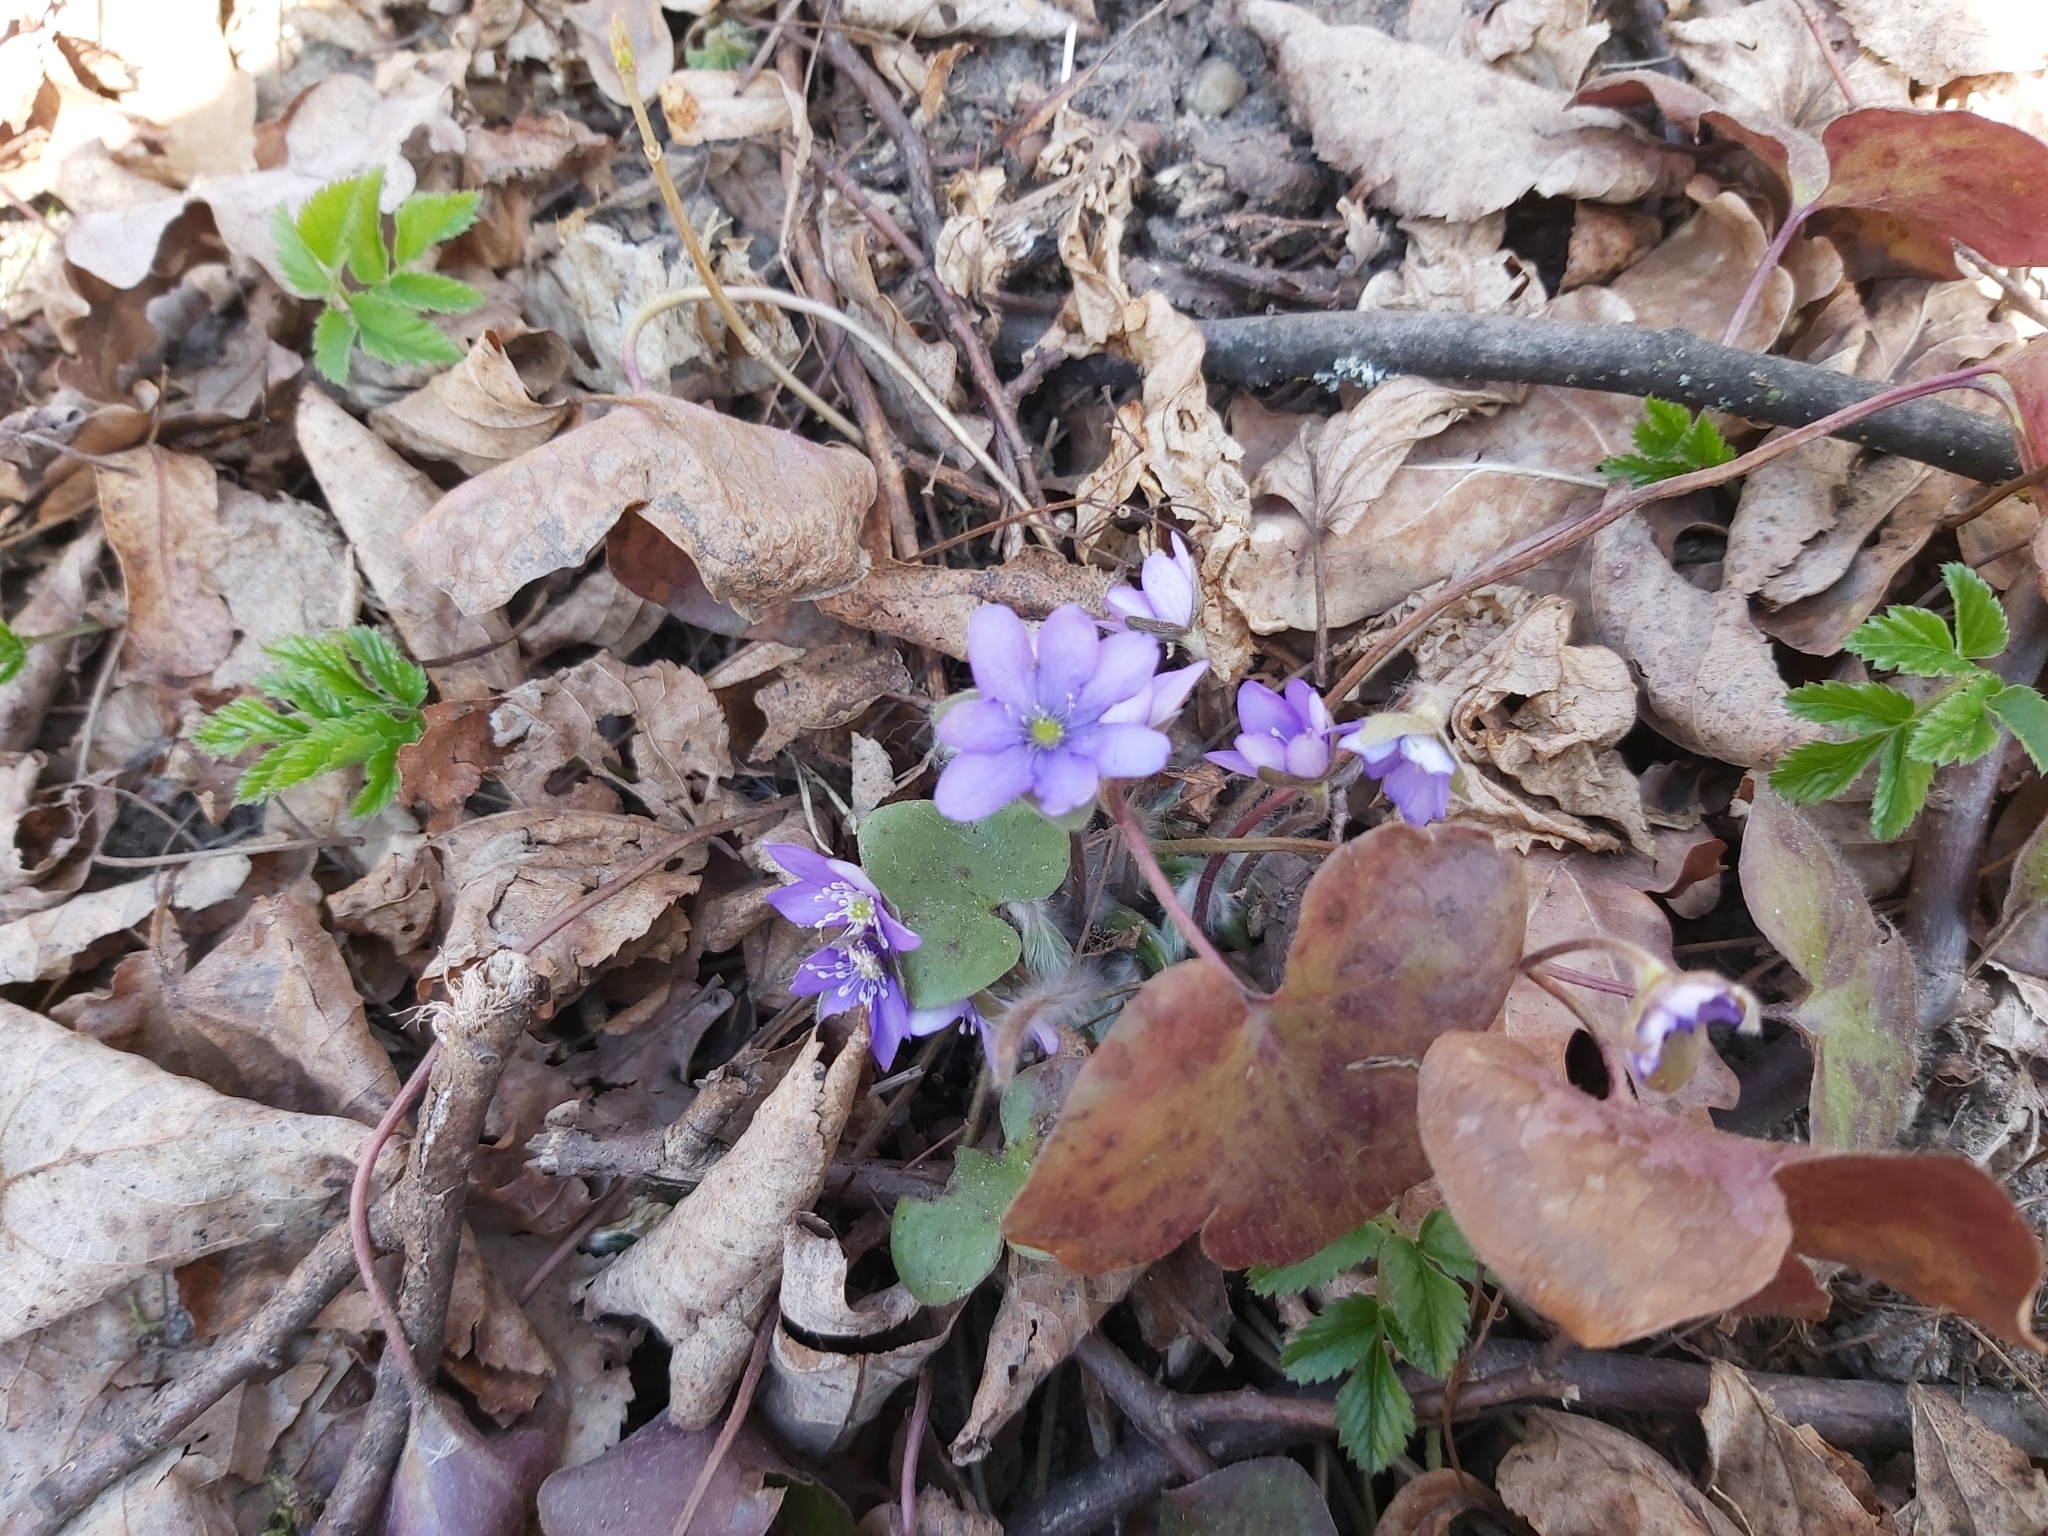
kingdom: Plantae
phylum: Tracheophyta
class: Magnoliopsida
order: Ranunculales
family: Ranunculaceae
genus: Hepatica
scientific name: Hepatica nobilis
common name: Liverleaf
